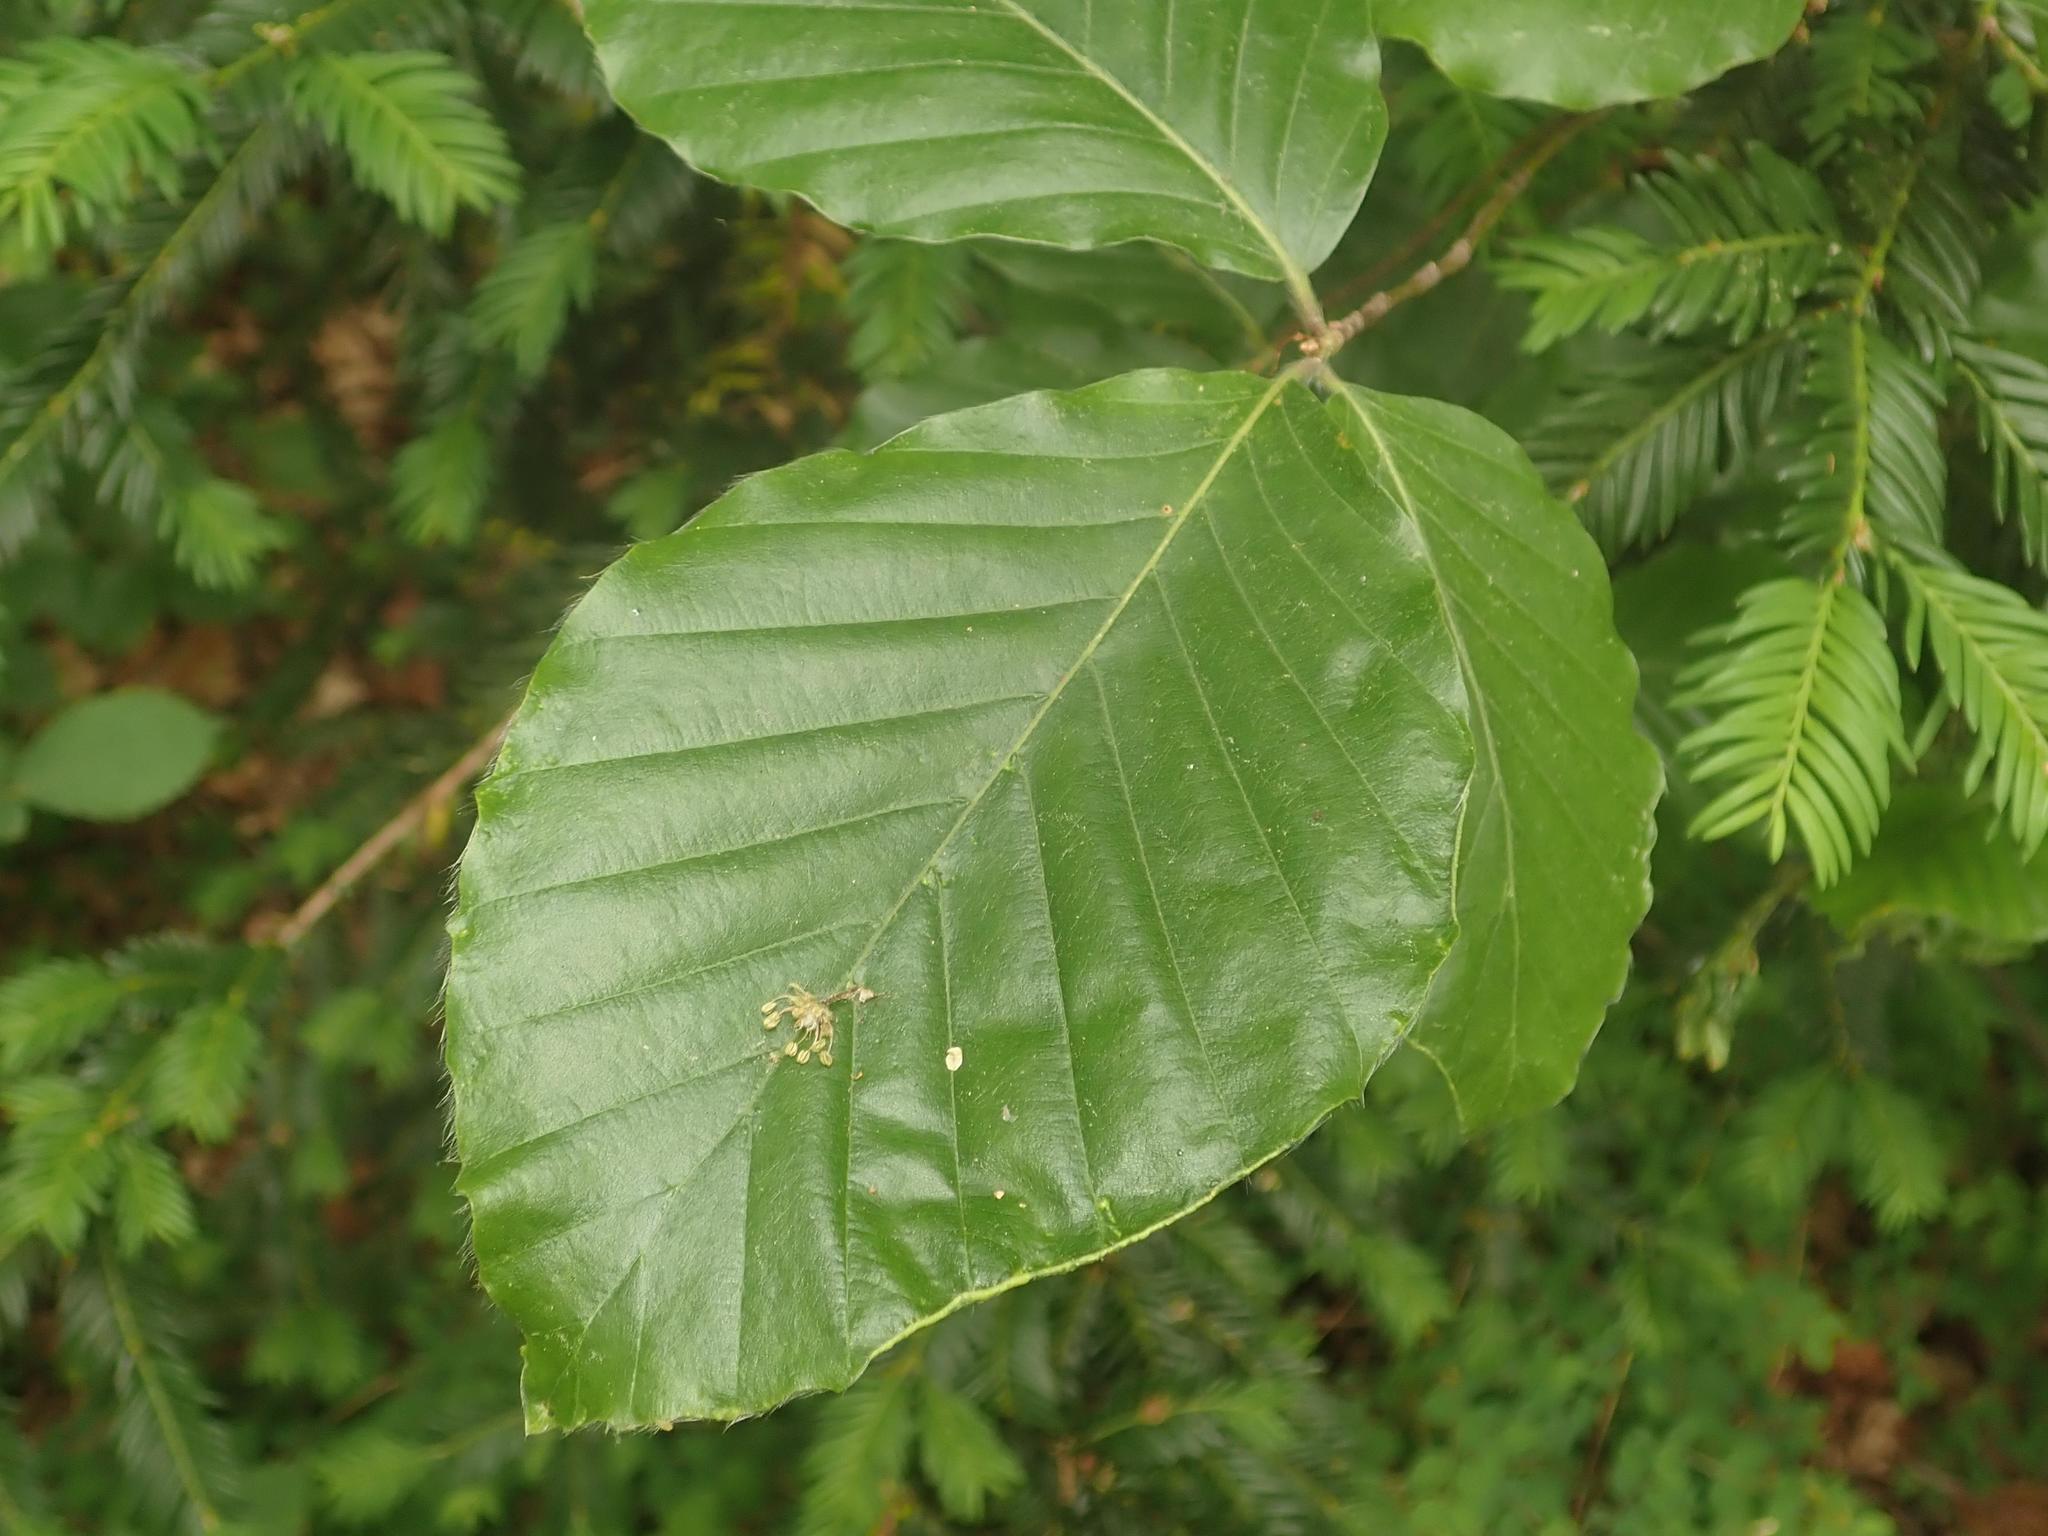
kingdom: Plantae
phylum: Tracheophyta
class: Magnoliopsida
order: Fagales
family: Fagaceae
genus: Fagus
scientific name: Fagus sylvatica
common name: Beech
